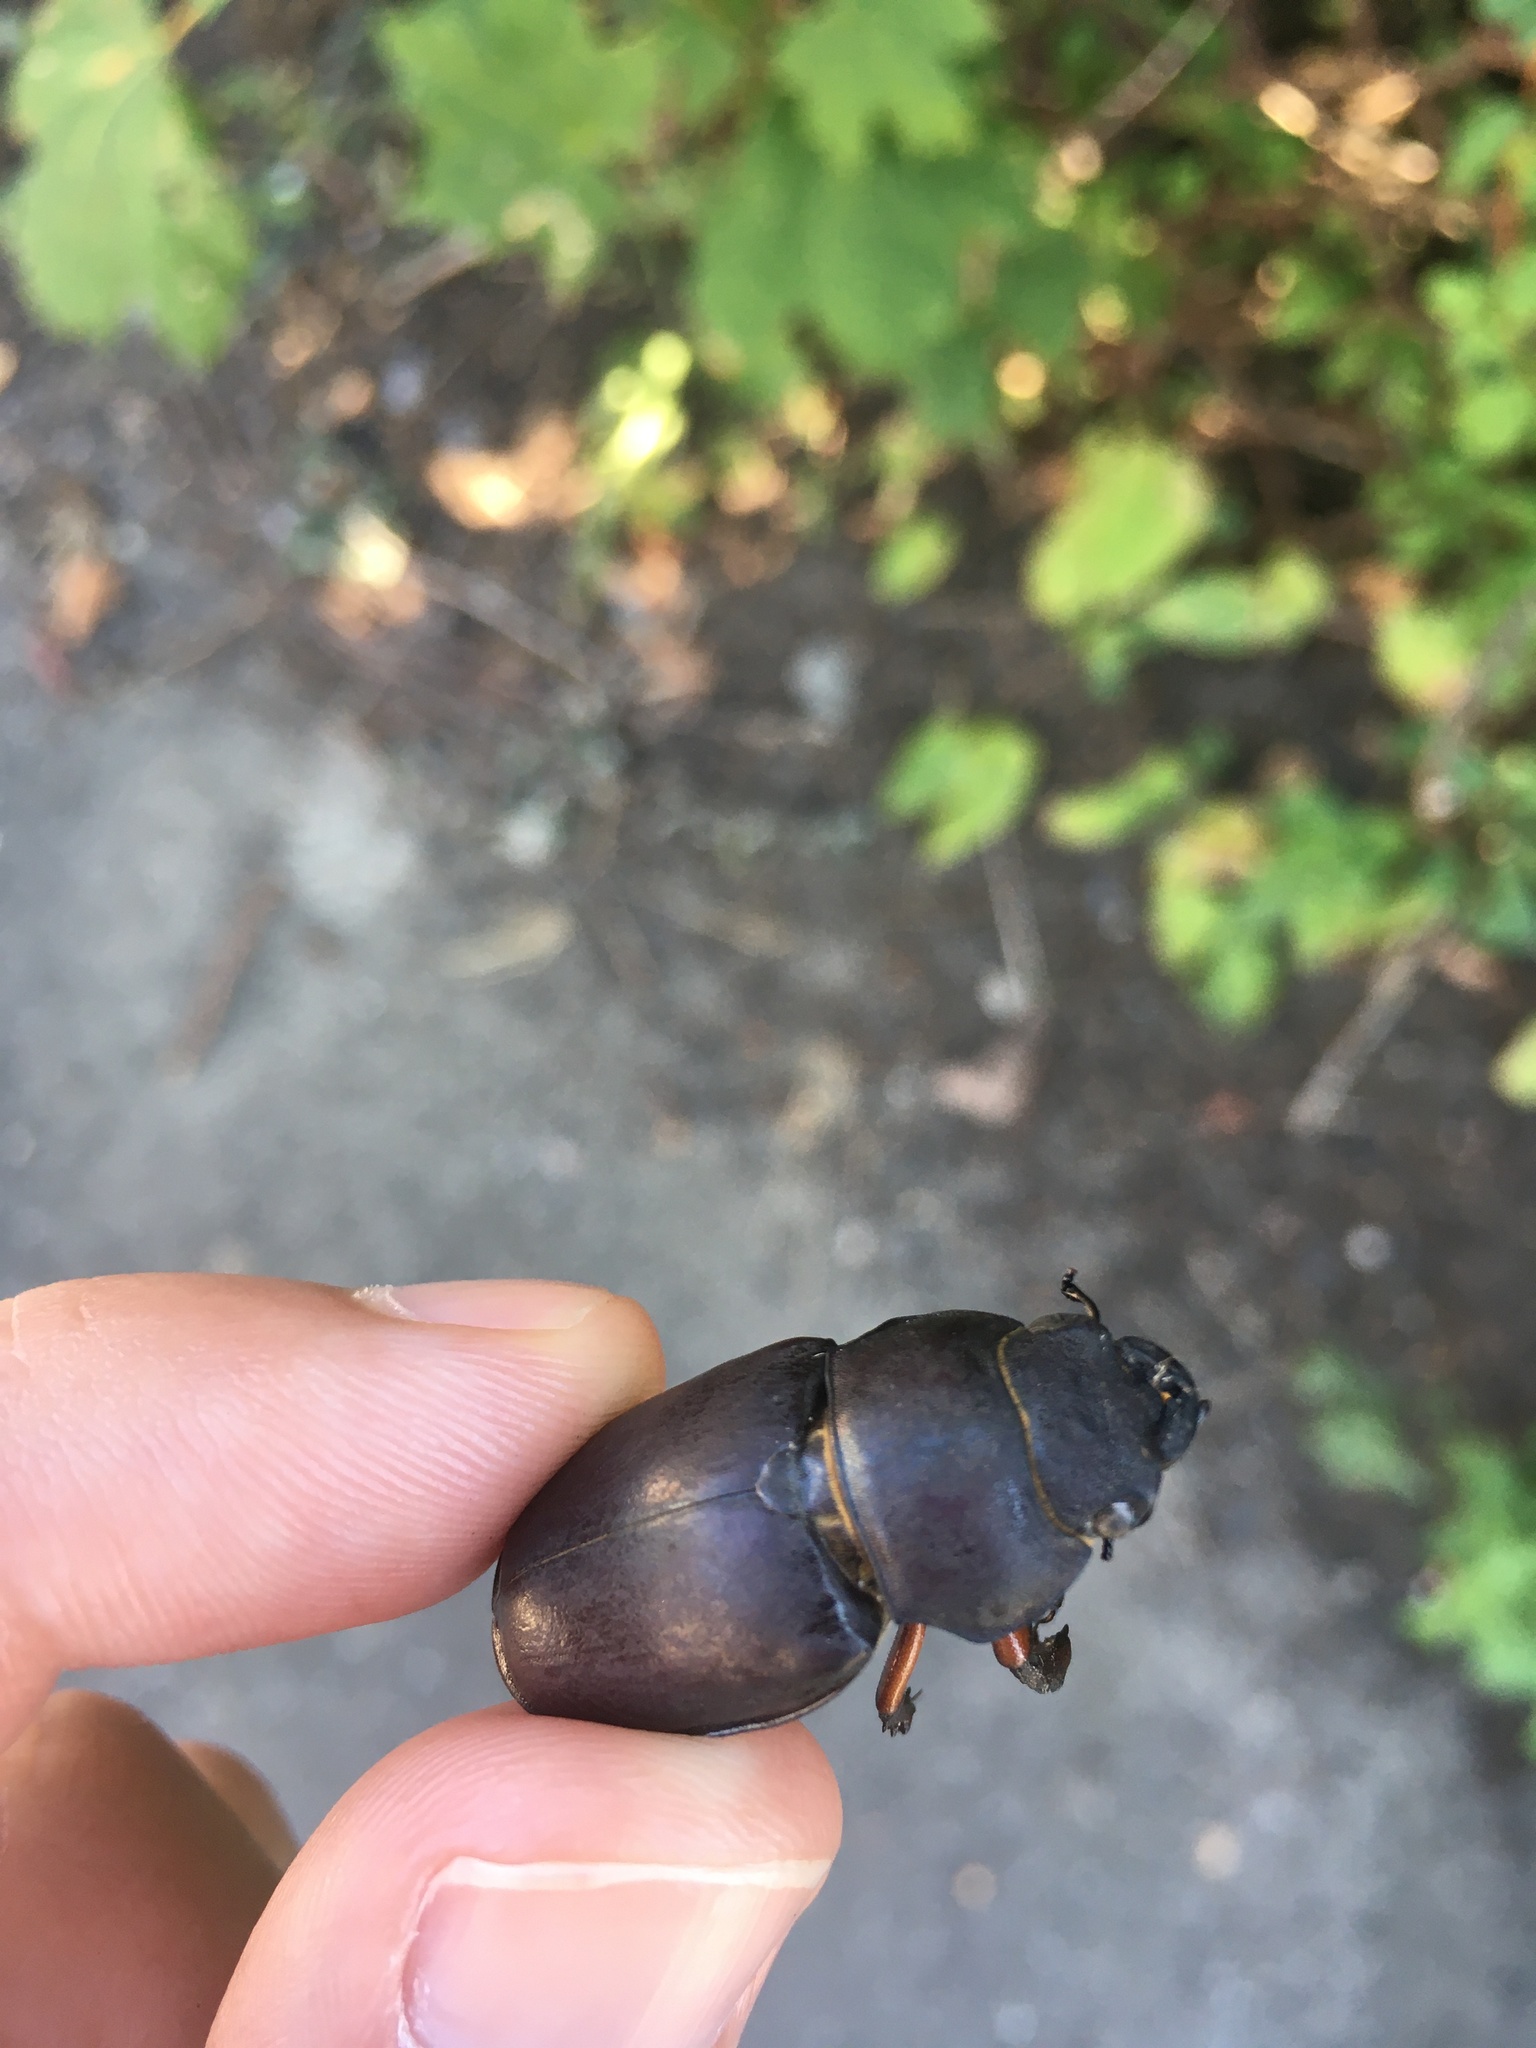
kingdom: Animalia
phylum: Arthropoda
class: Insecta
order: Coleoptera
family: Lucanidae
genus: Lucanus
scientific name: Lucanus capreolus
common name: Stag beetle
